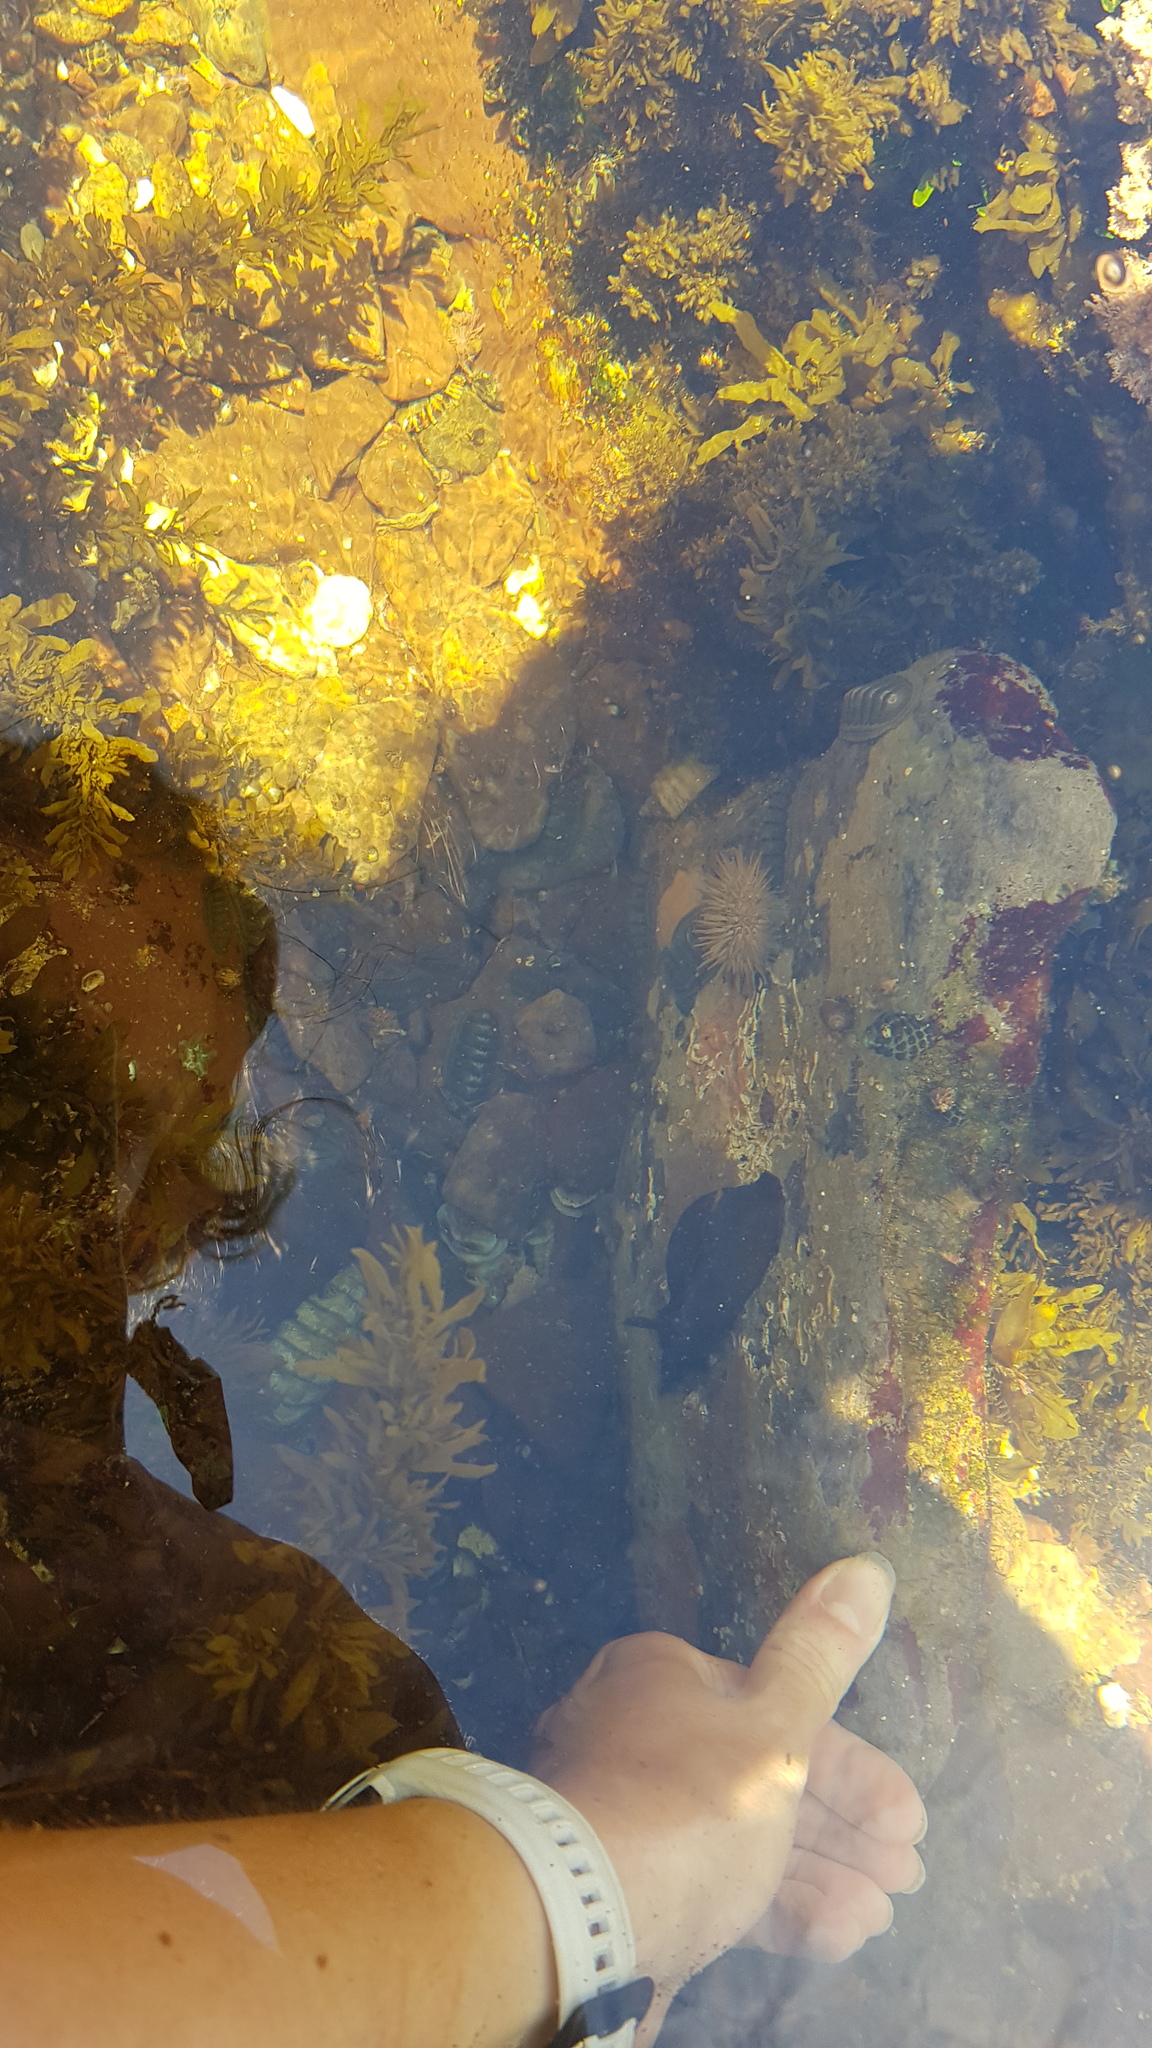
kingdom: Animalia
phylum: Mollusca
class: Gastropoda
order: Aplysiida
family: Aplysiidae
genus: Aplysia
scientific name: Aplysia juliana
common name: Walking sea hare
